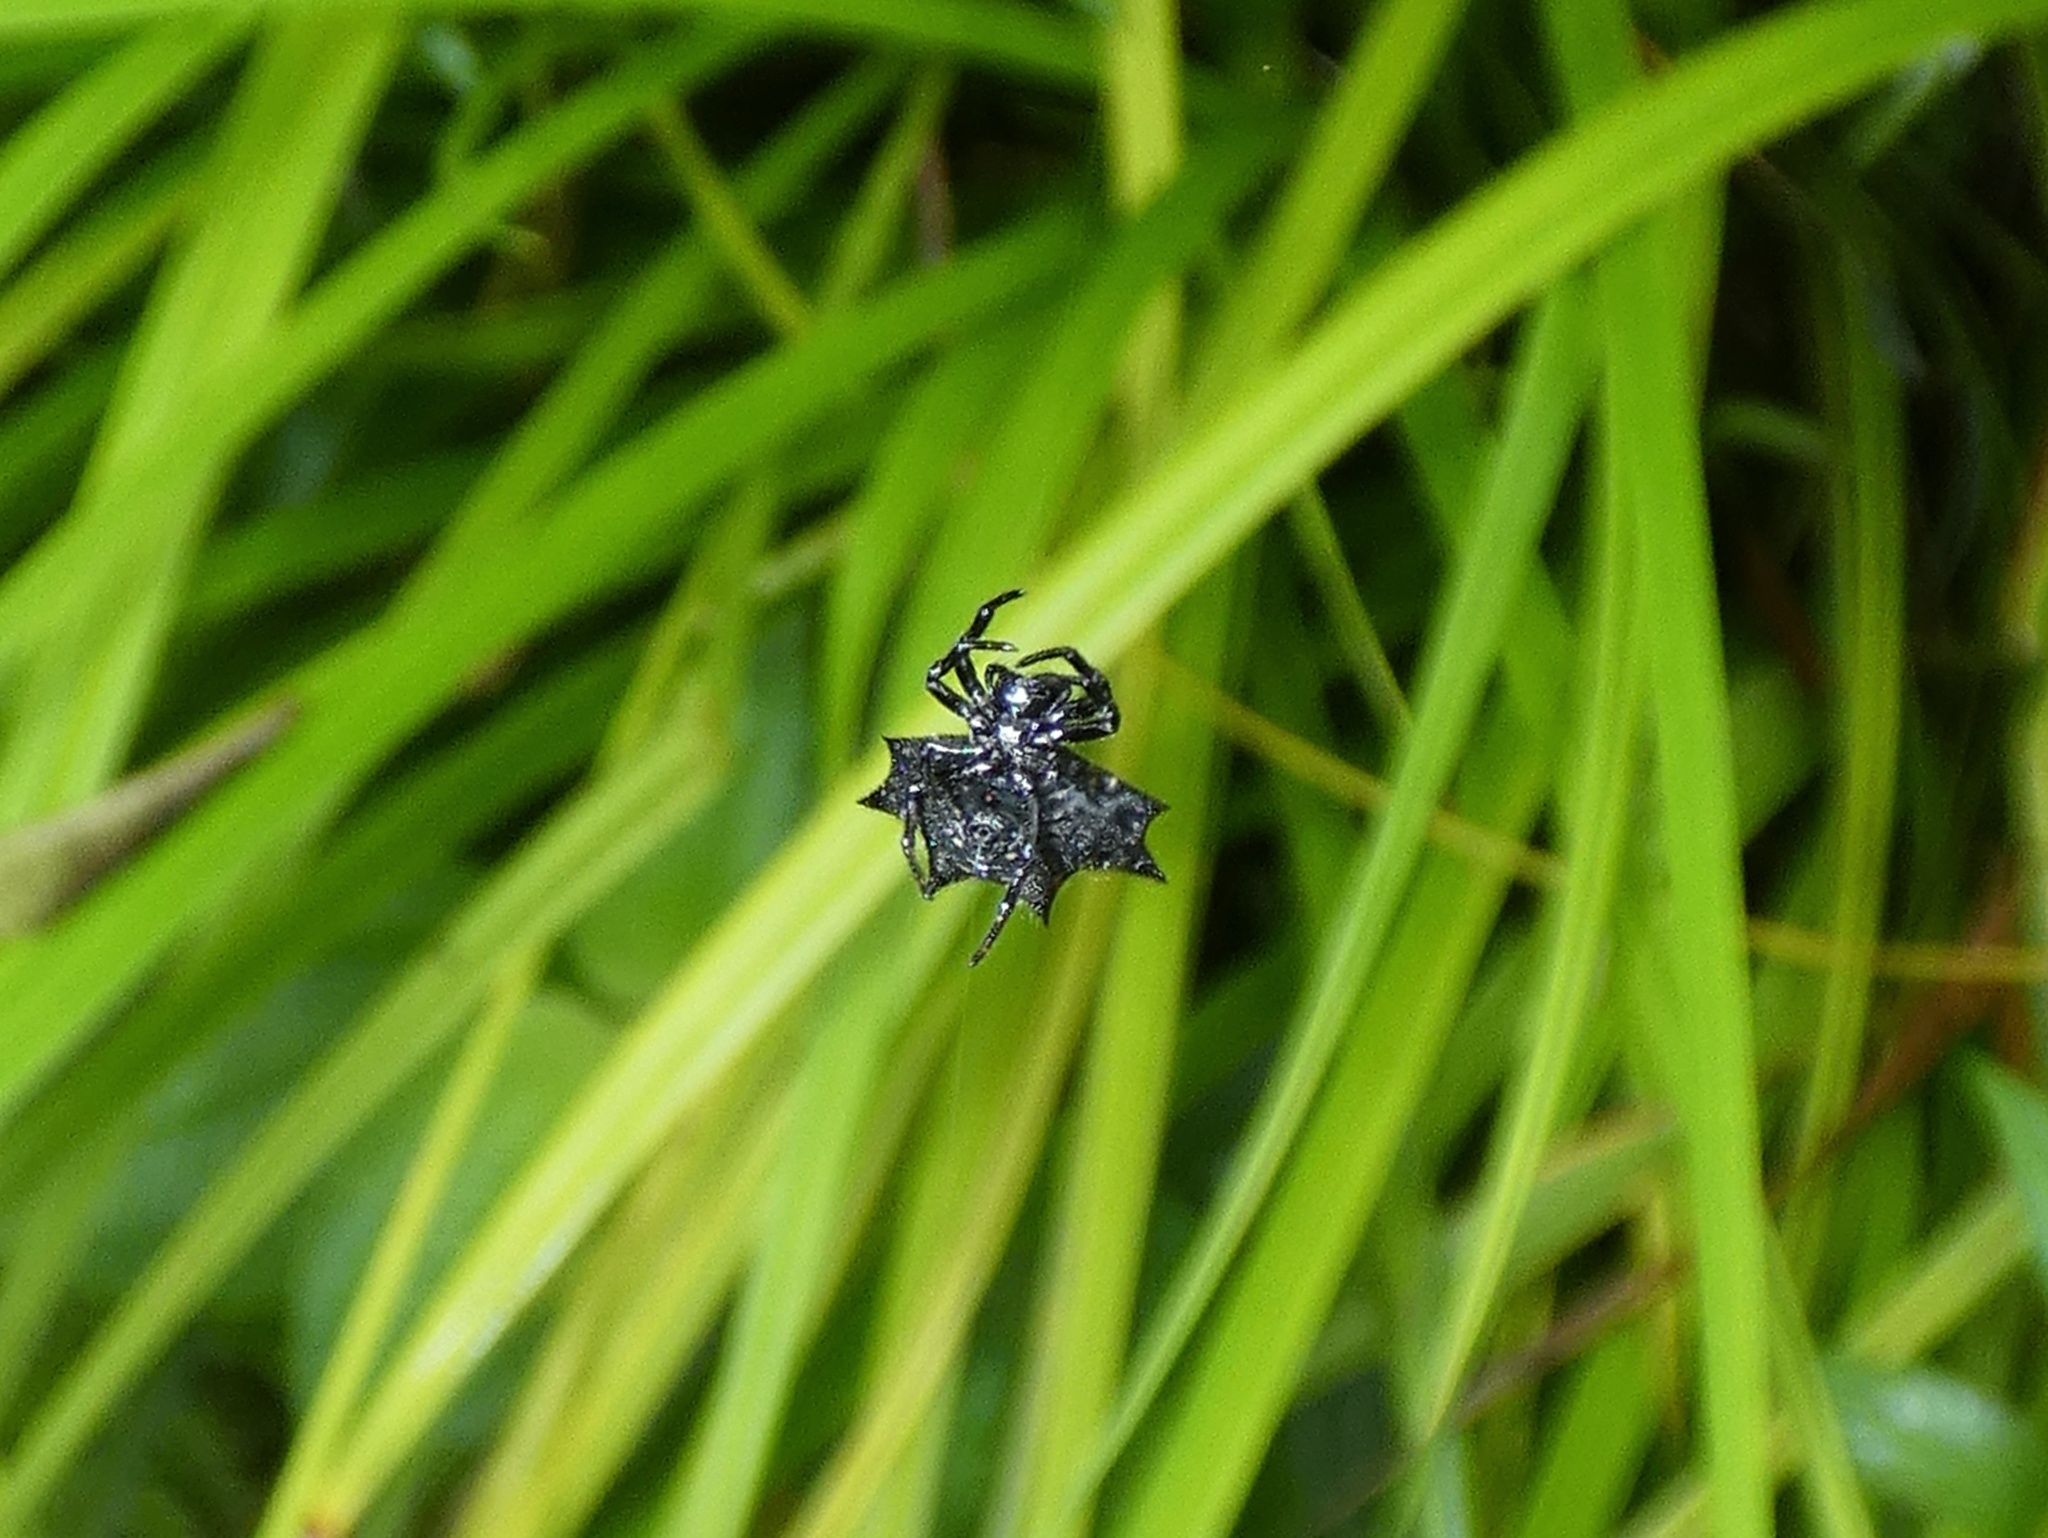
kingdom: Animalia
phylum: Arthropoda
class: Arachnida
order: Araneae
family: Araneidae
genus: Gasteracantha
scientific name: Gasteracantha cancriformis
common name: Orb weavers
